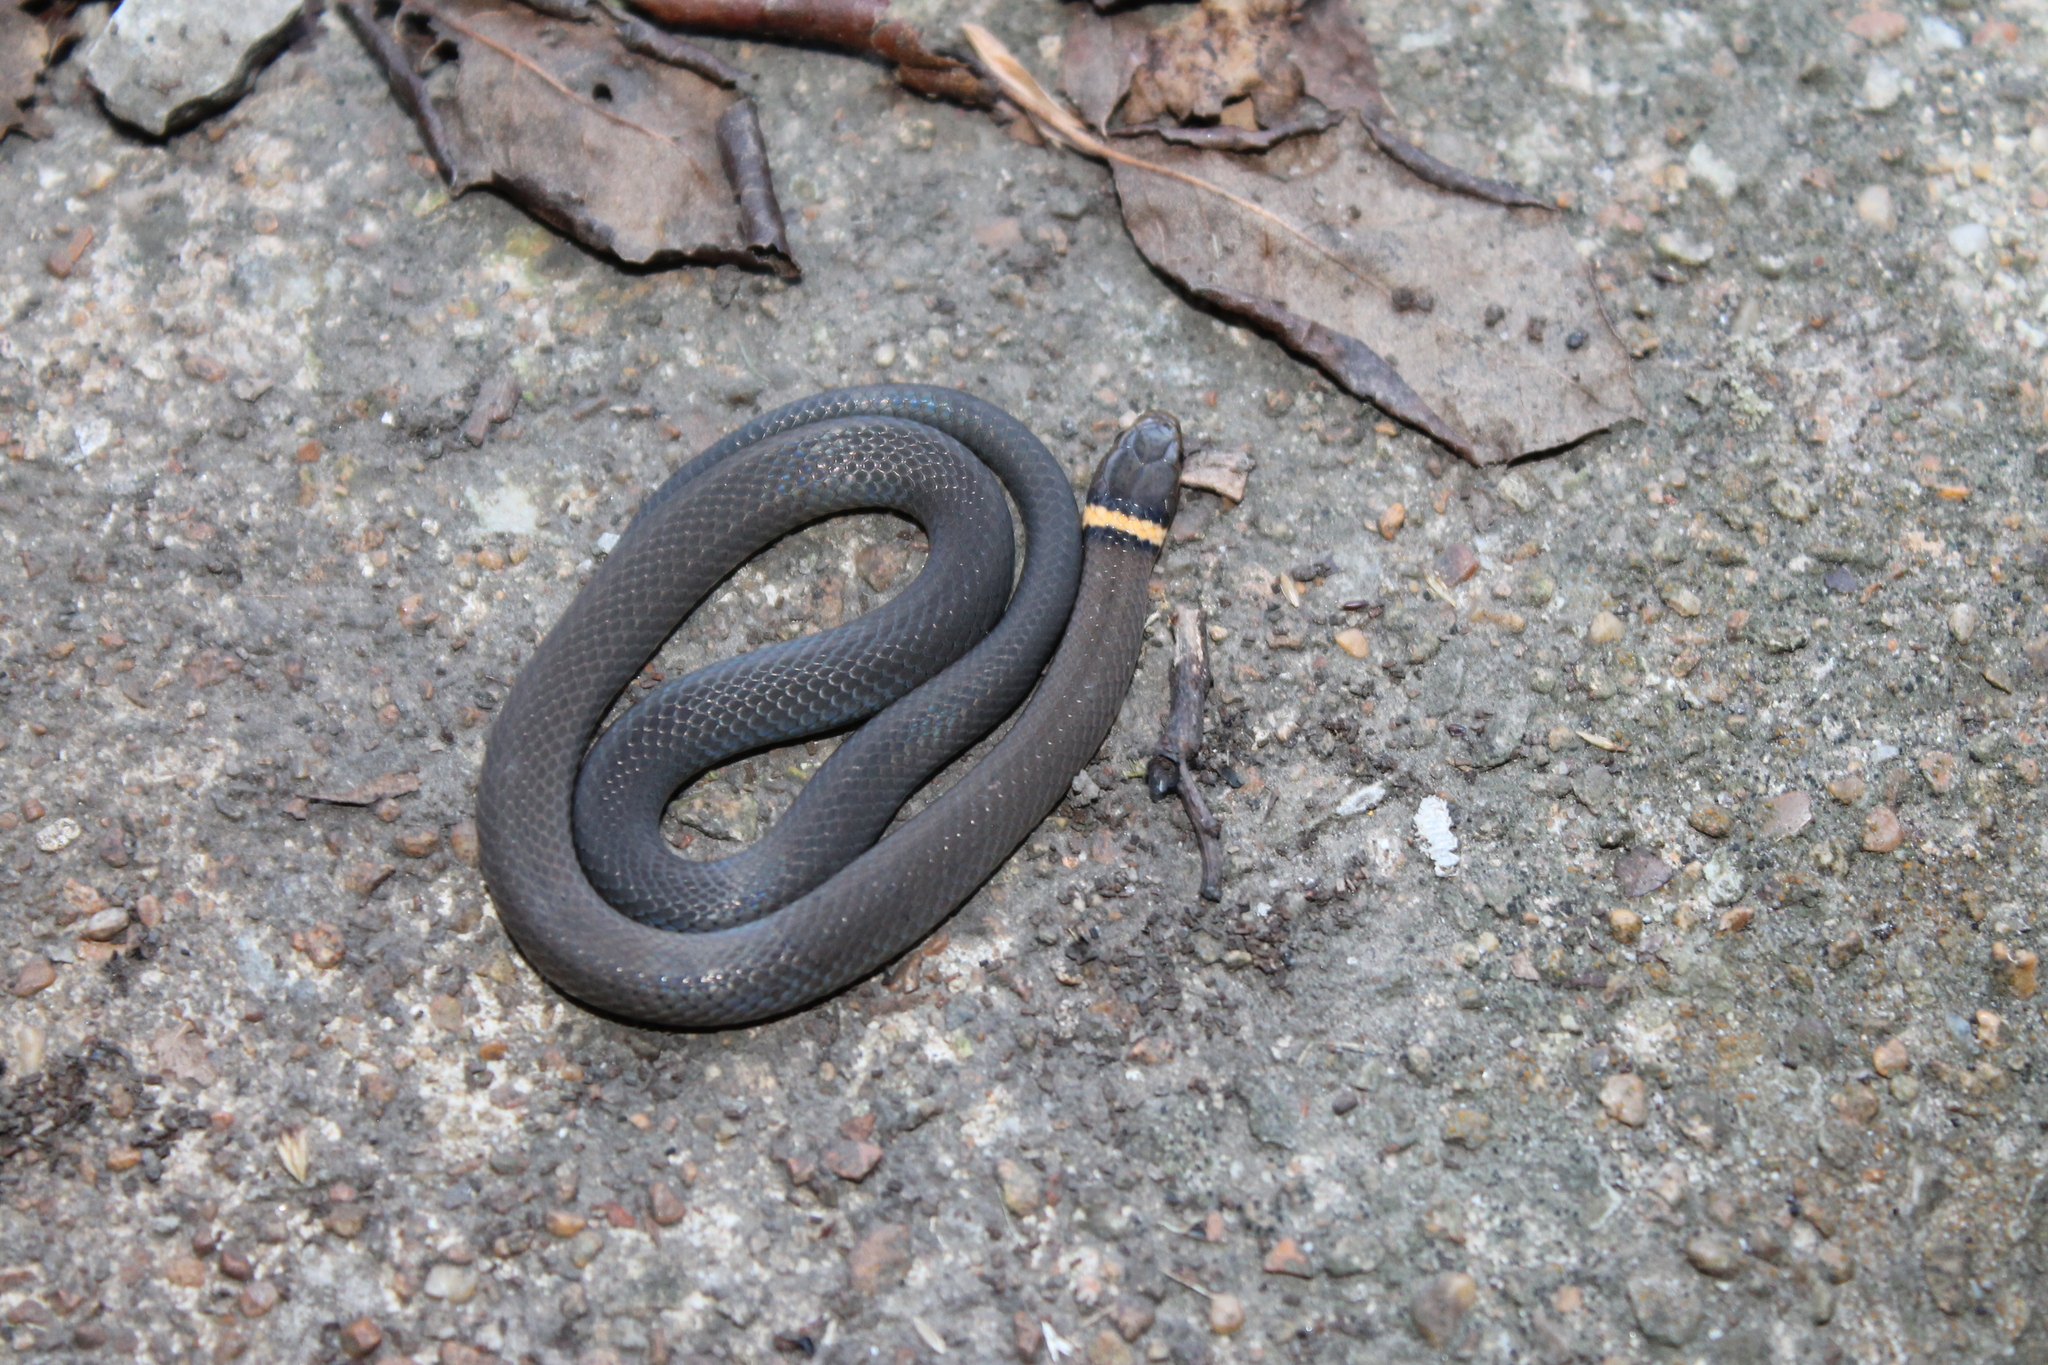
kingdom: Animalia
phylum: Chordata
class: Squamata
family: Colubridae
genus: Diadophis
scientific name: Diadophis punctatus
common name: Ringneck snake
